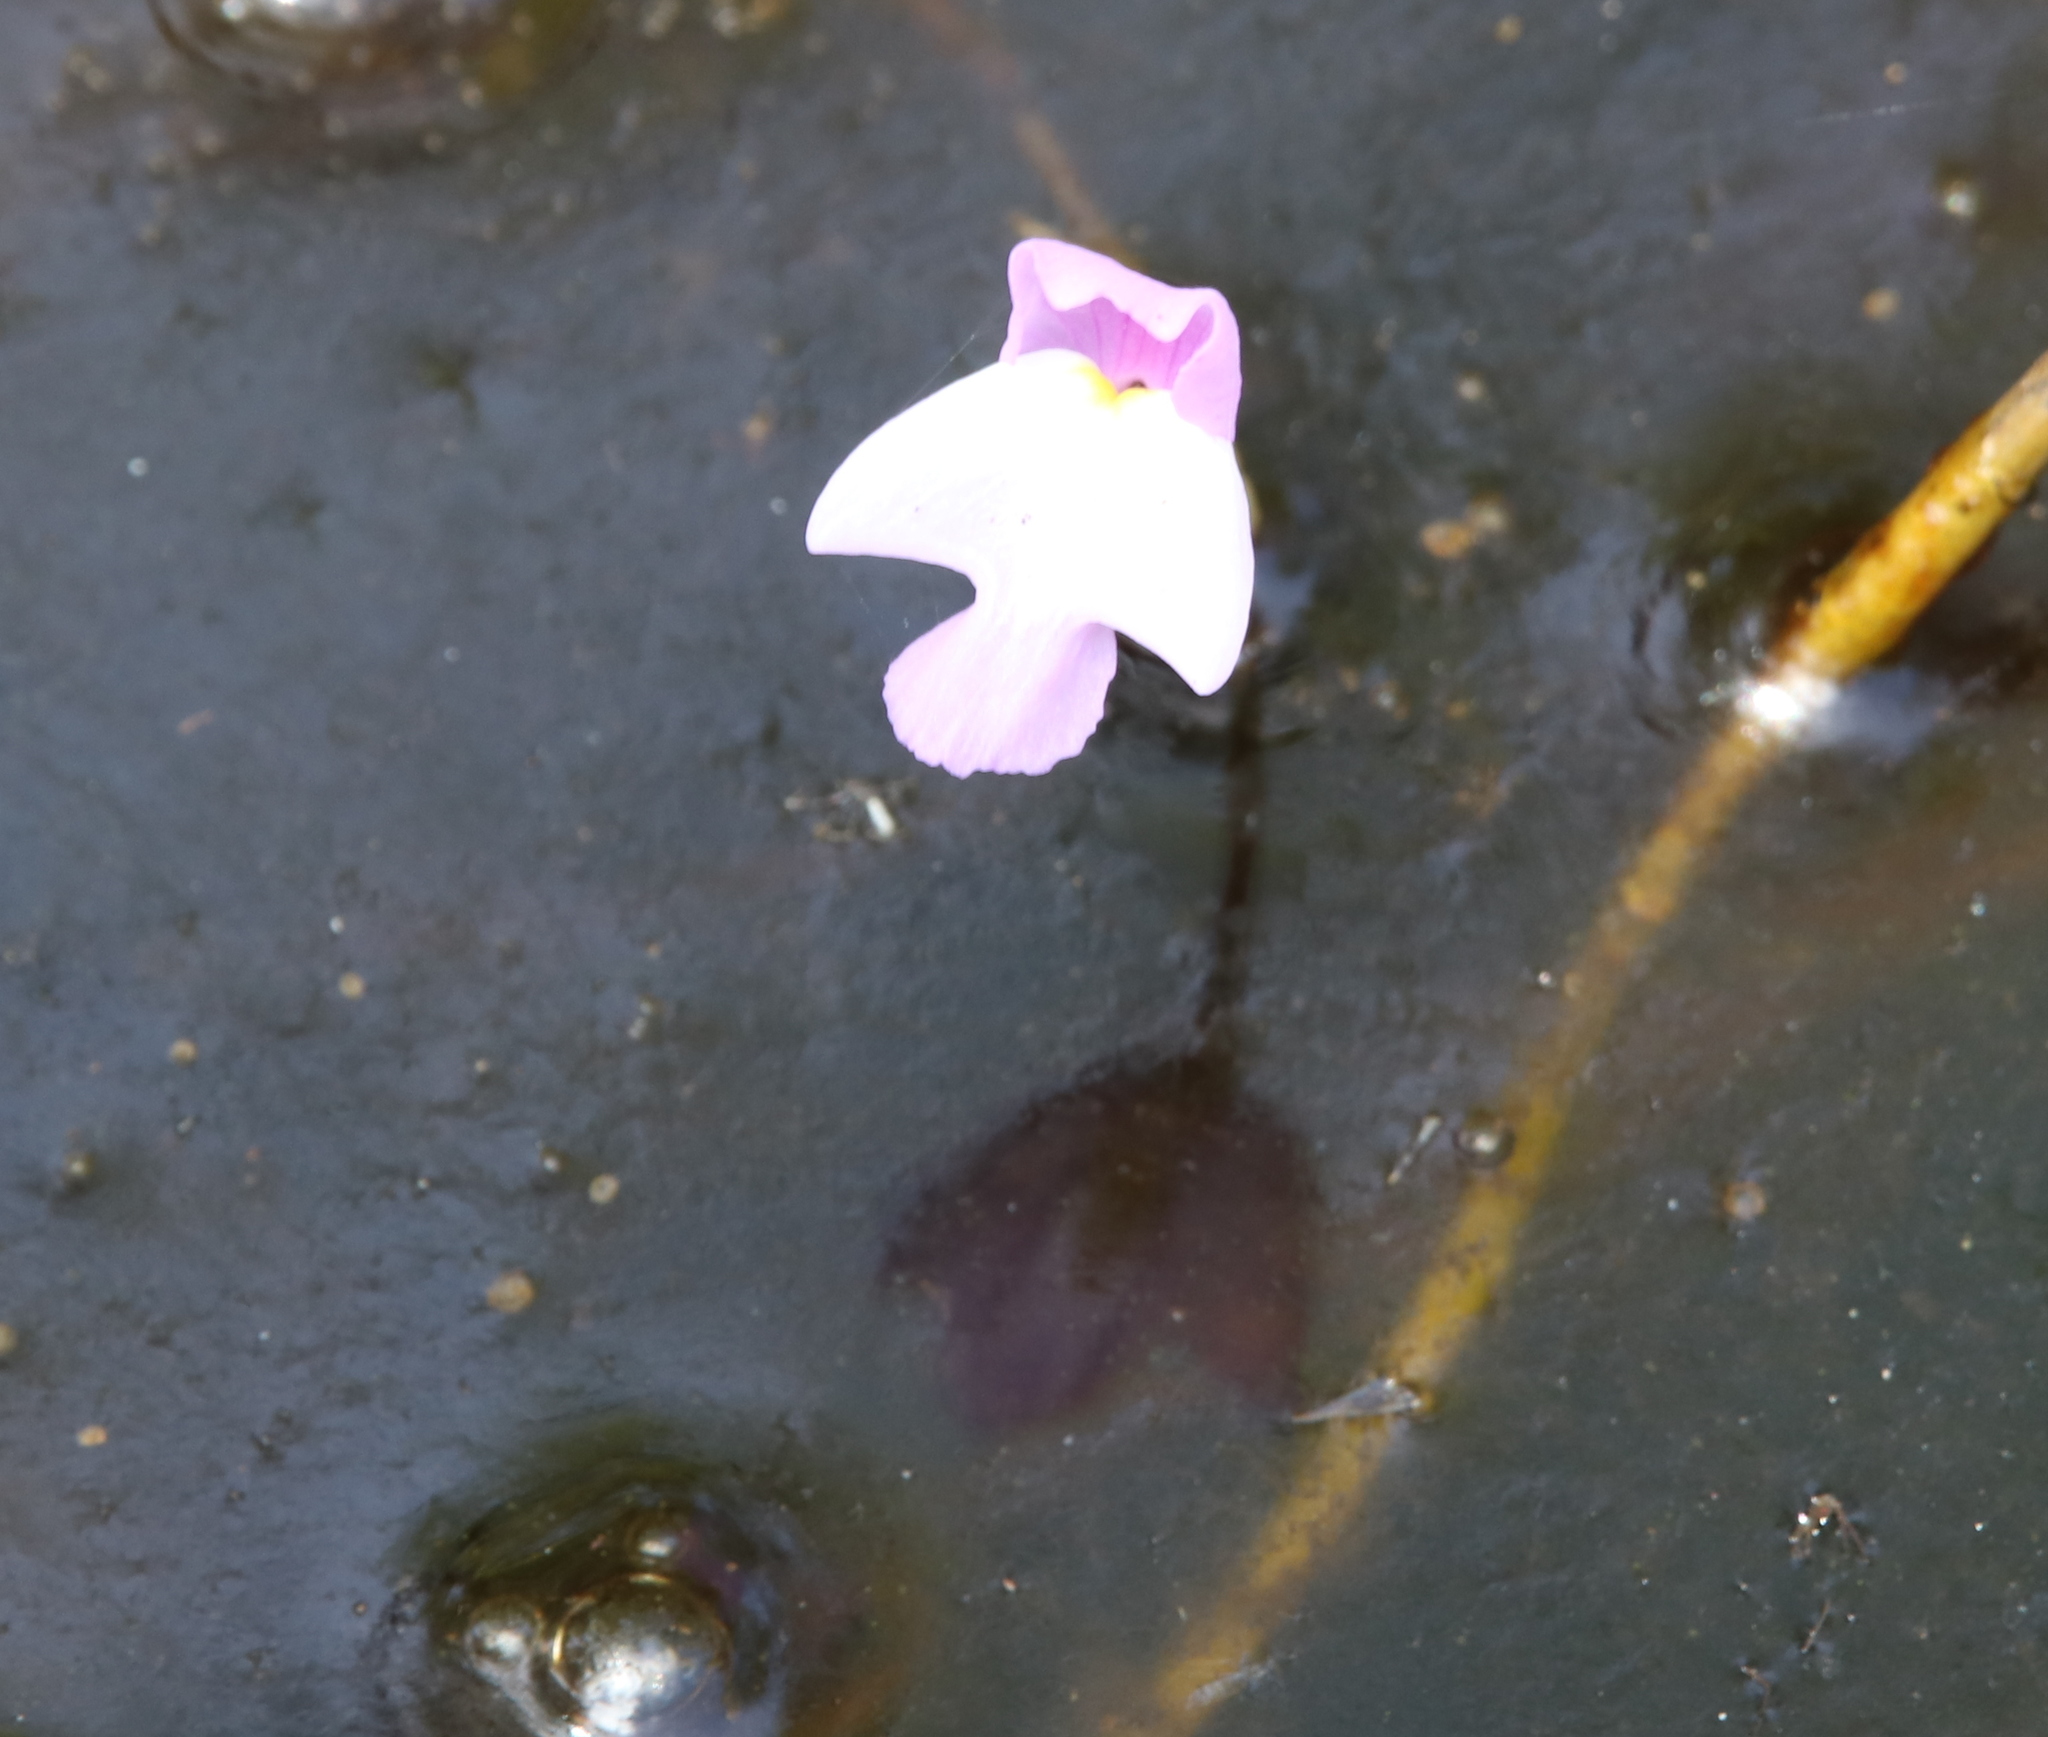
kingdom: Plantae
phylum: Tracheophyta
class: Magnoliopsida
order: Lamiales
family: Lentibulariaceae
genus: Utricularia
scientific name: Utricularia purpurea
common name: Eastern purple bladderwort
